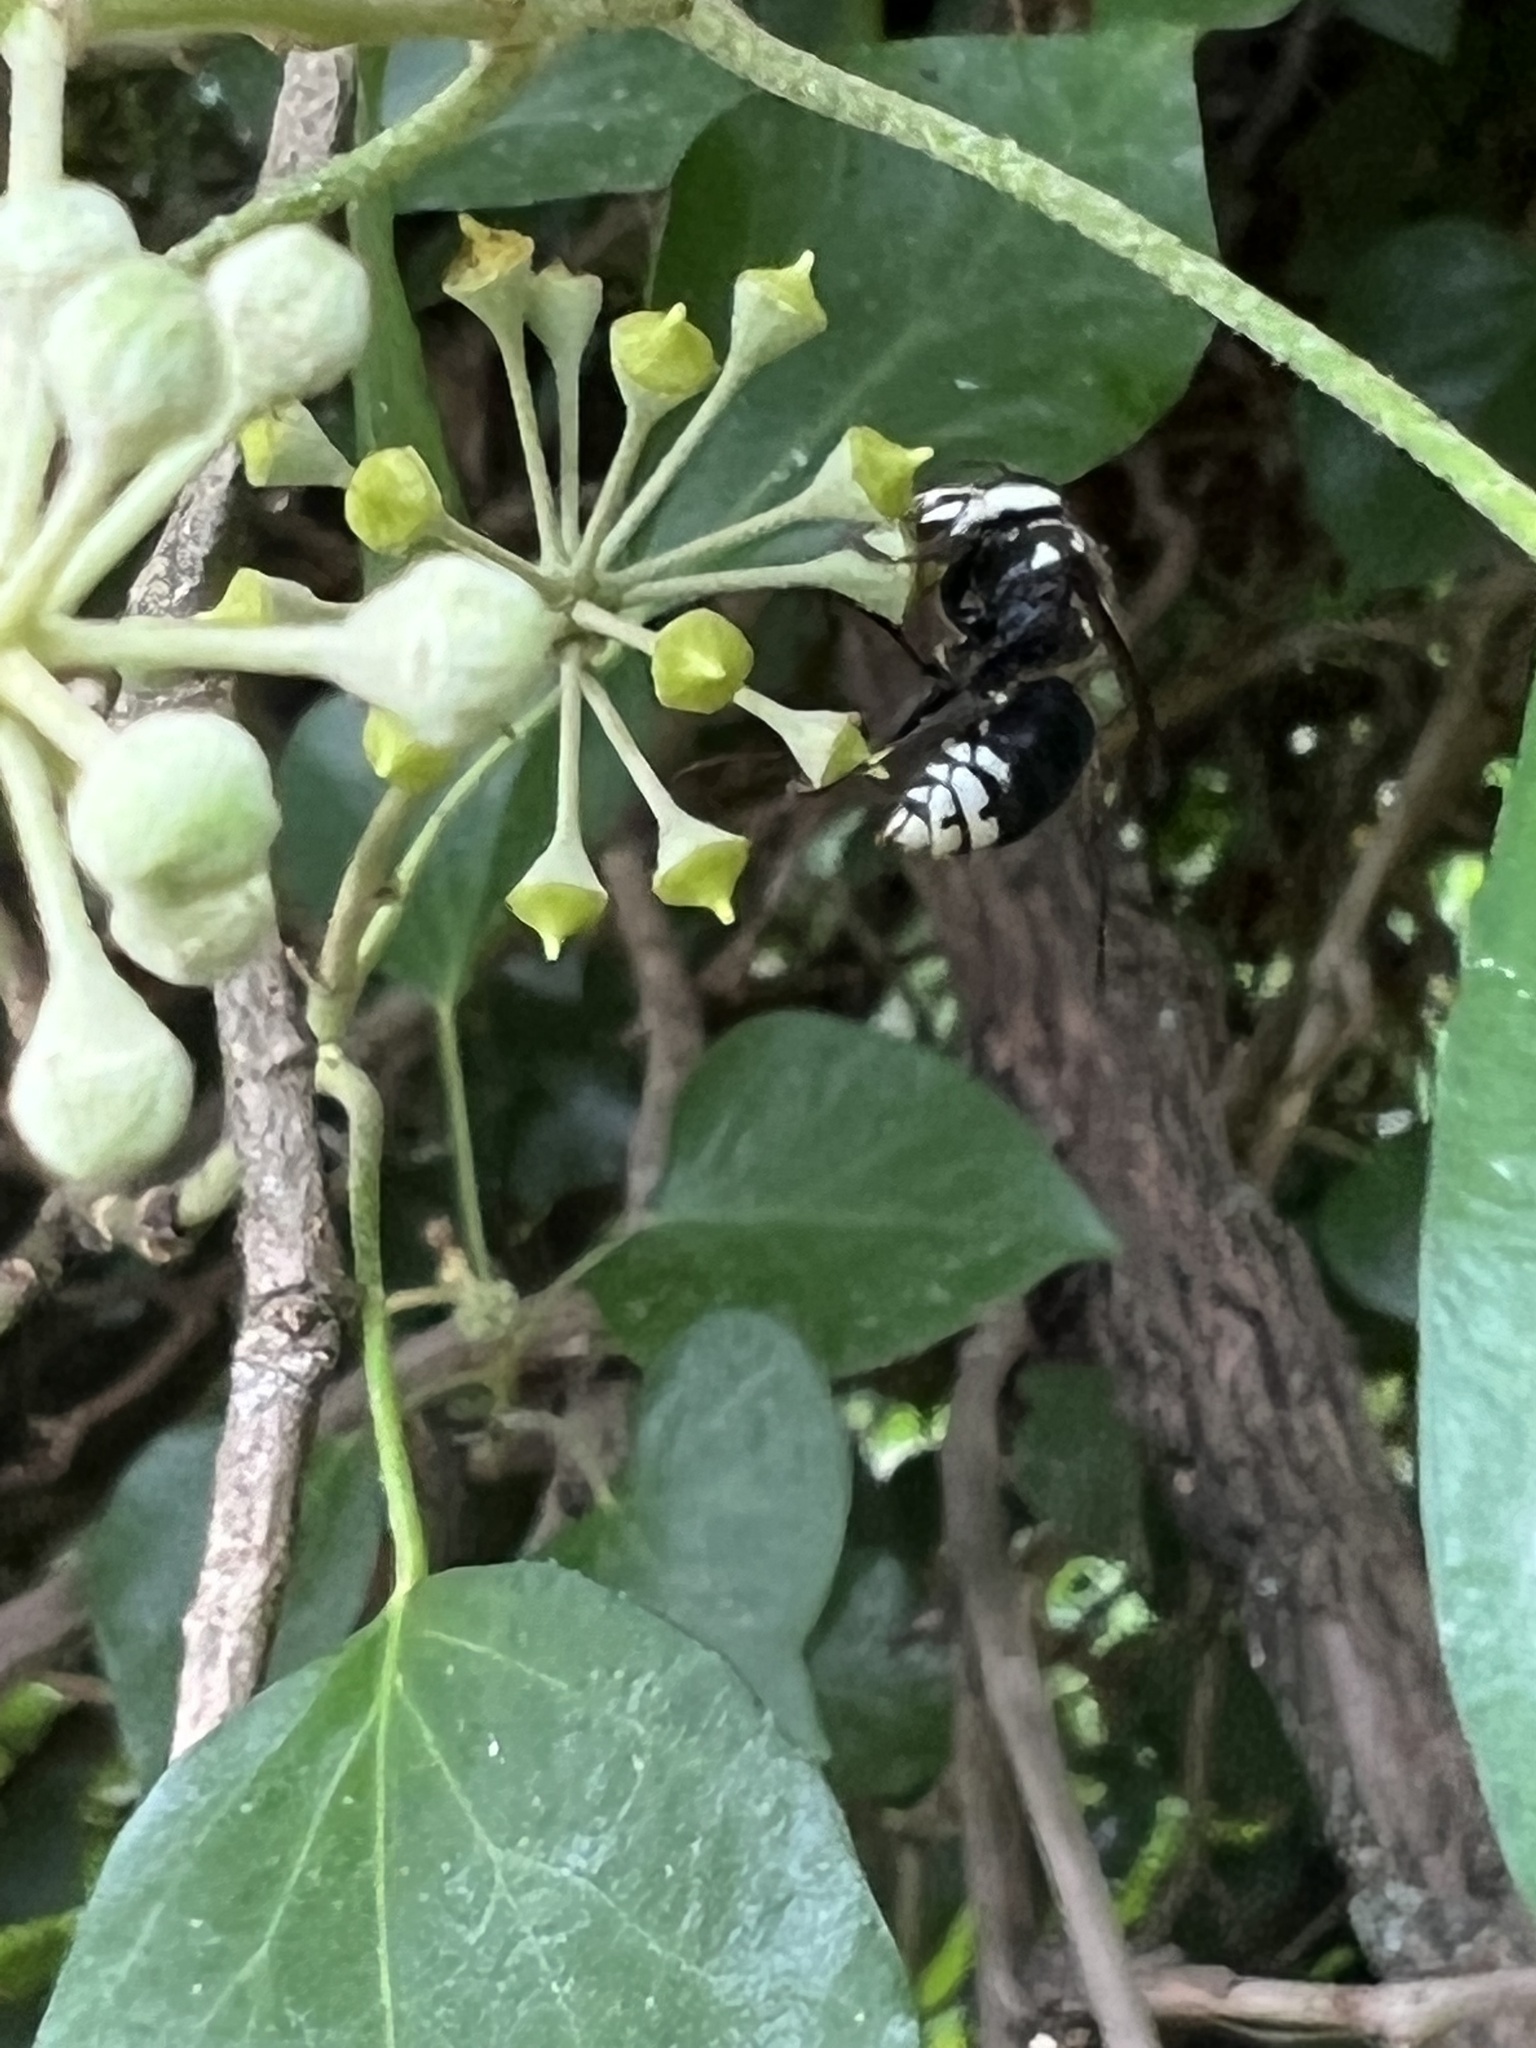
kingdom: Animalia
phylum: Arthropoda
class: Insecta
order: Hymenoptera
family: Vespidae
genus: Dolichovespula
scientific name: Dolichovespula maculata
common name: Bald-faced hornet
